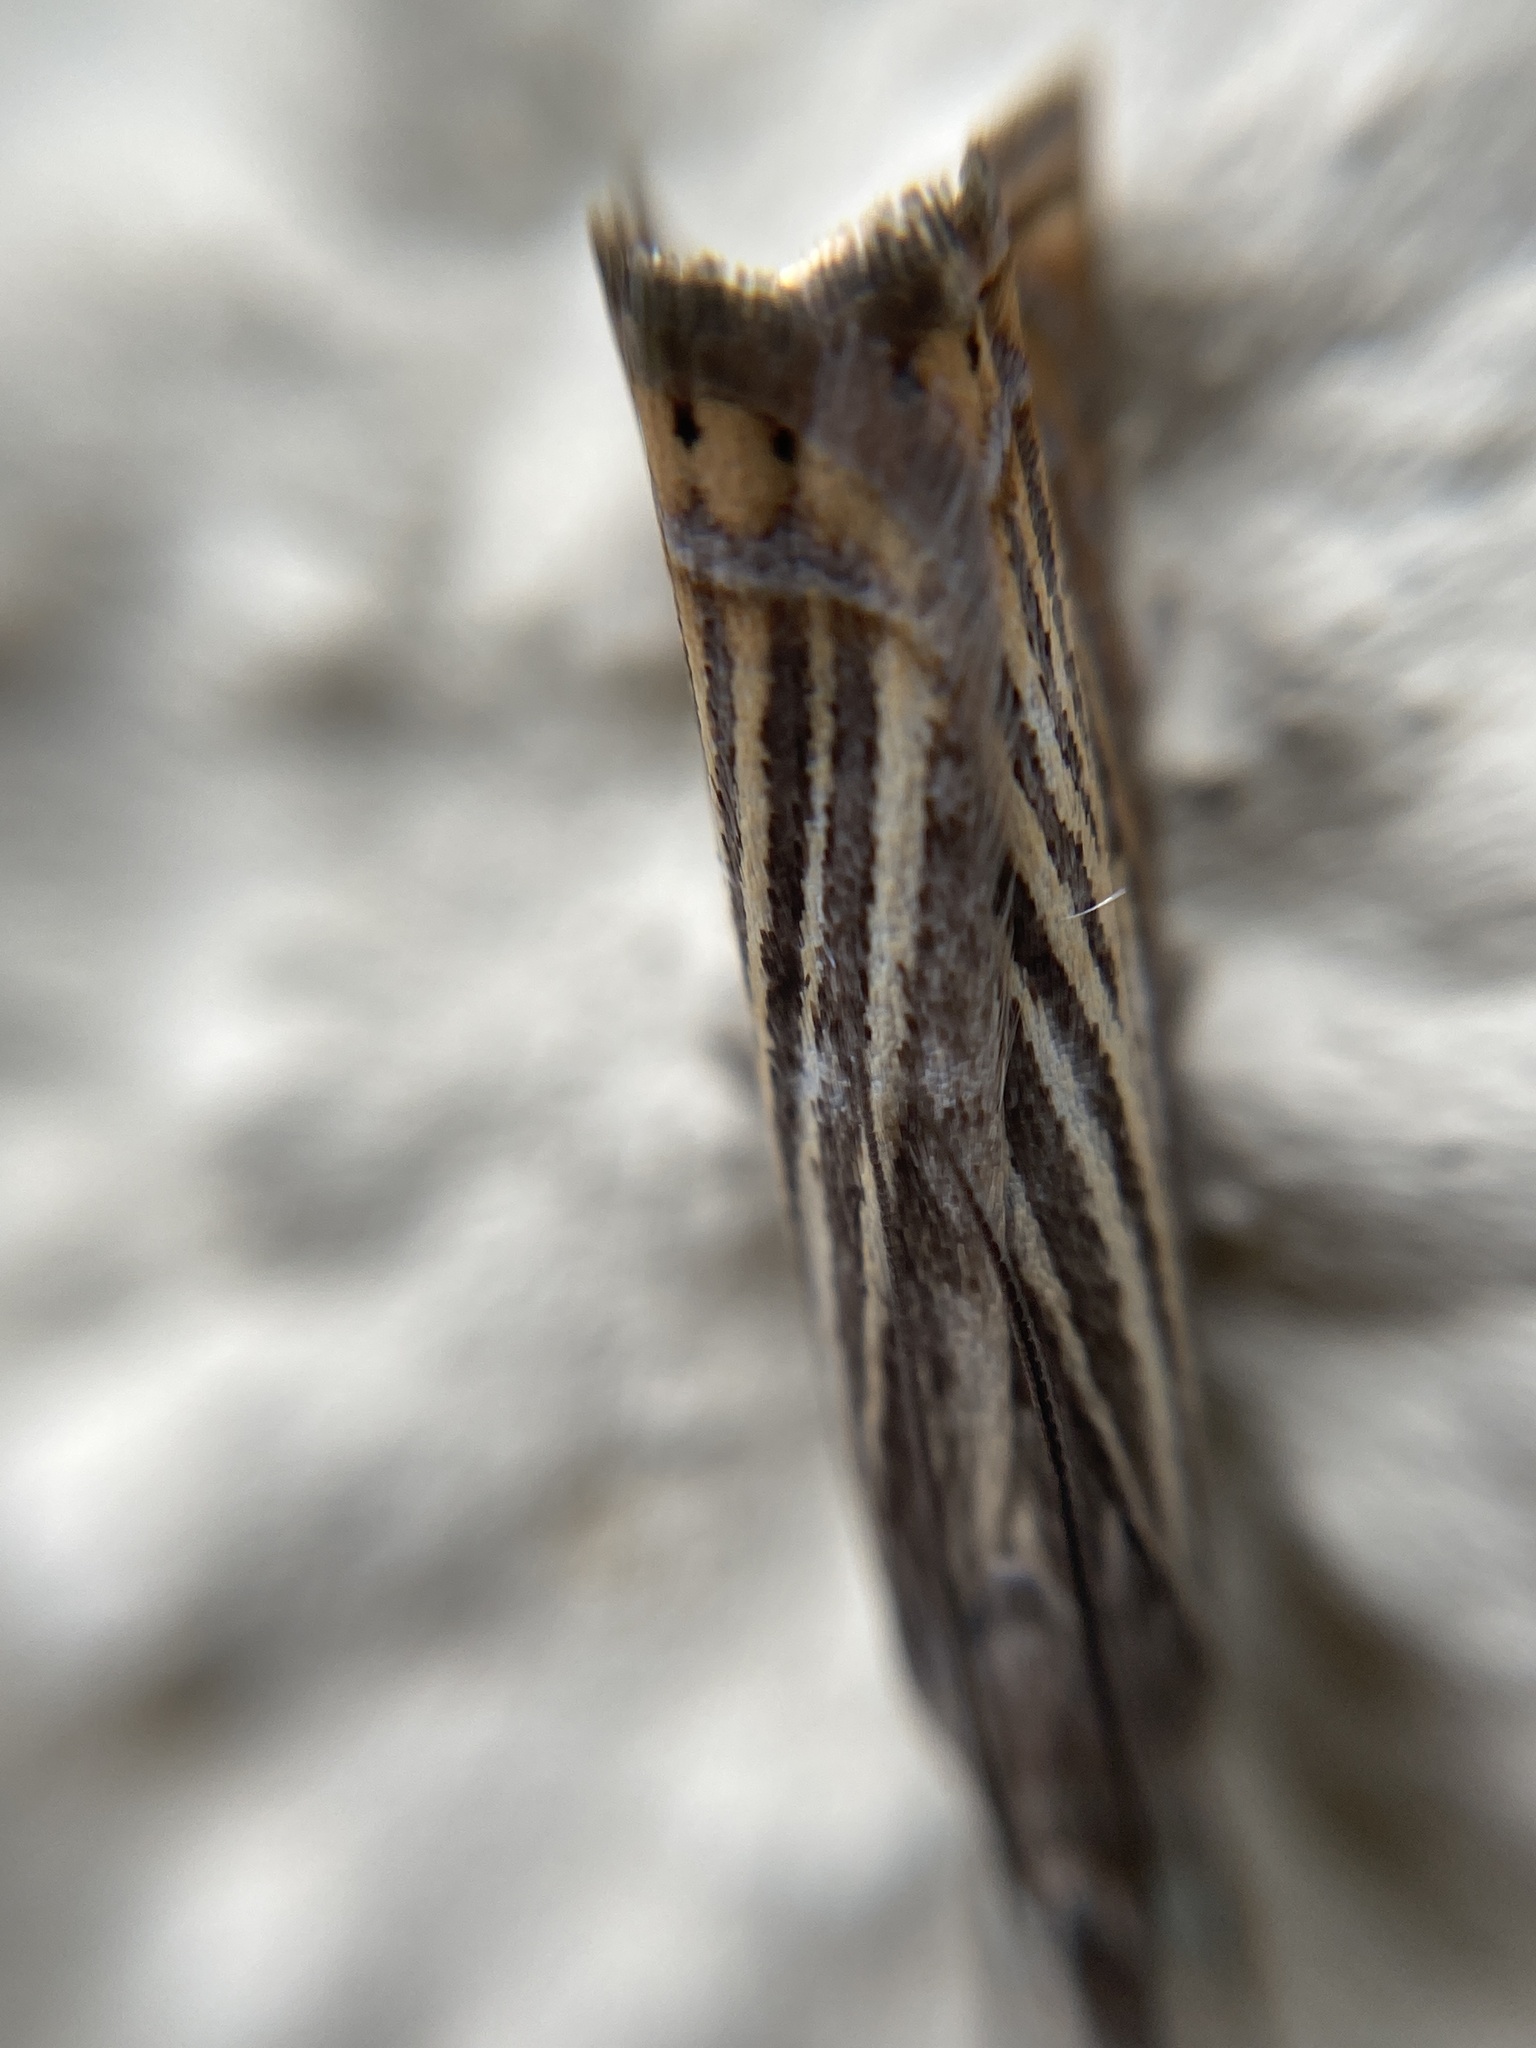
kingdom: Animalia
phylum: Arthropoda
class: Insecta
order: Lepidoptera
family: Crambidae
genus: Chrysoteuchia
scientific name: Chrysoteuchia culmella
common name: Garden grass-veneer
